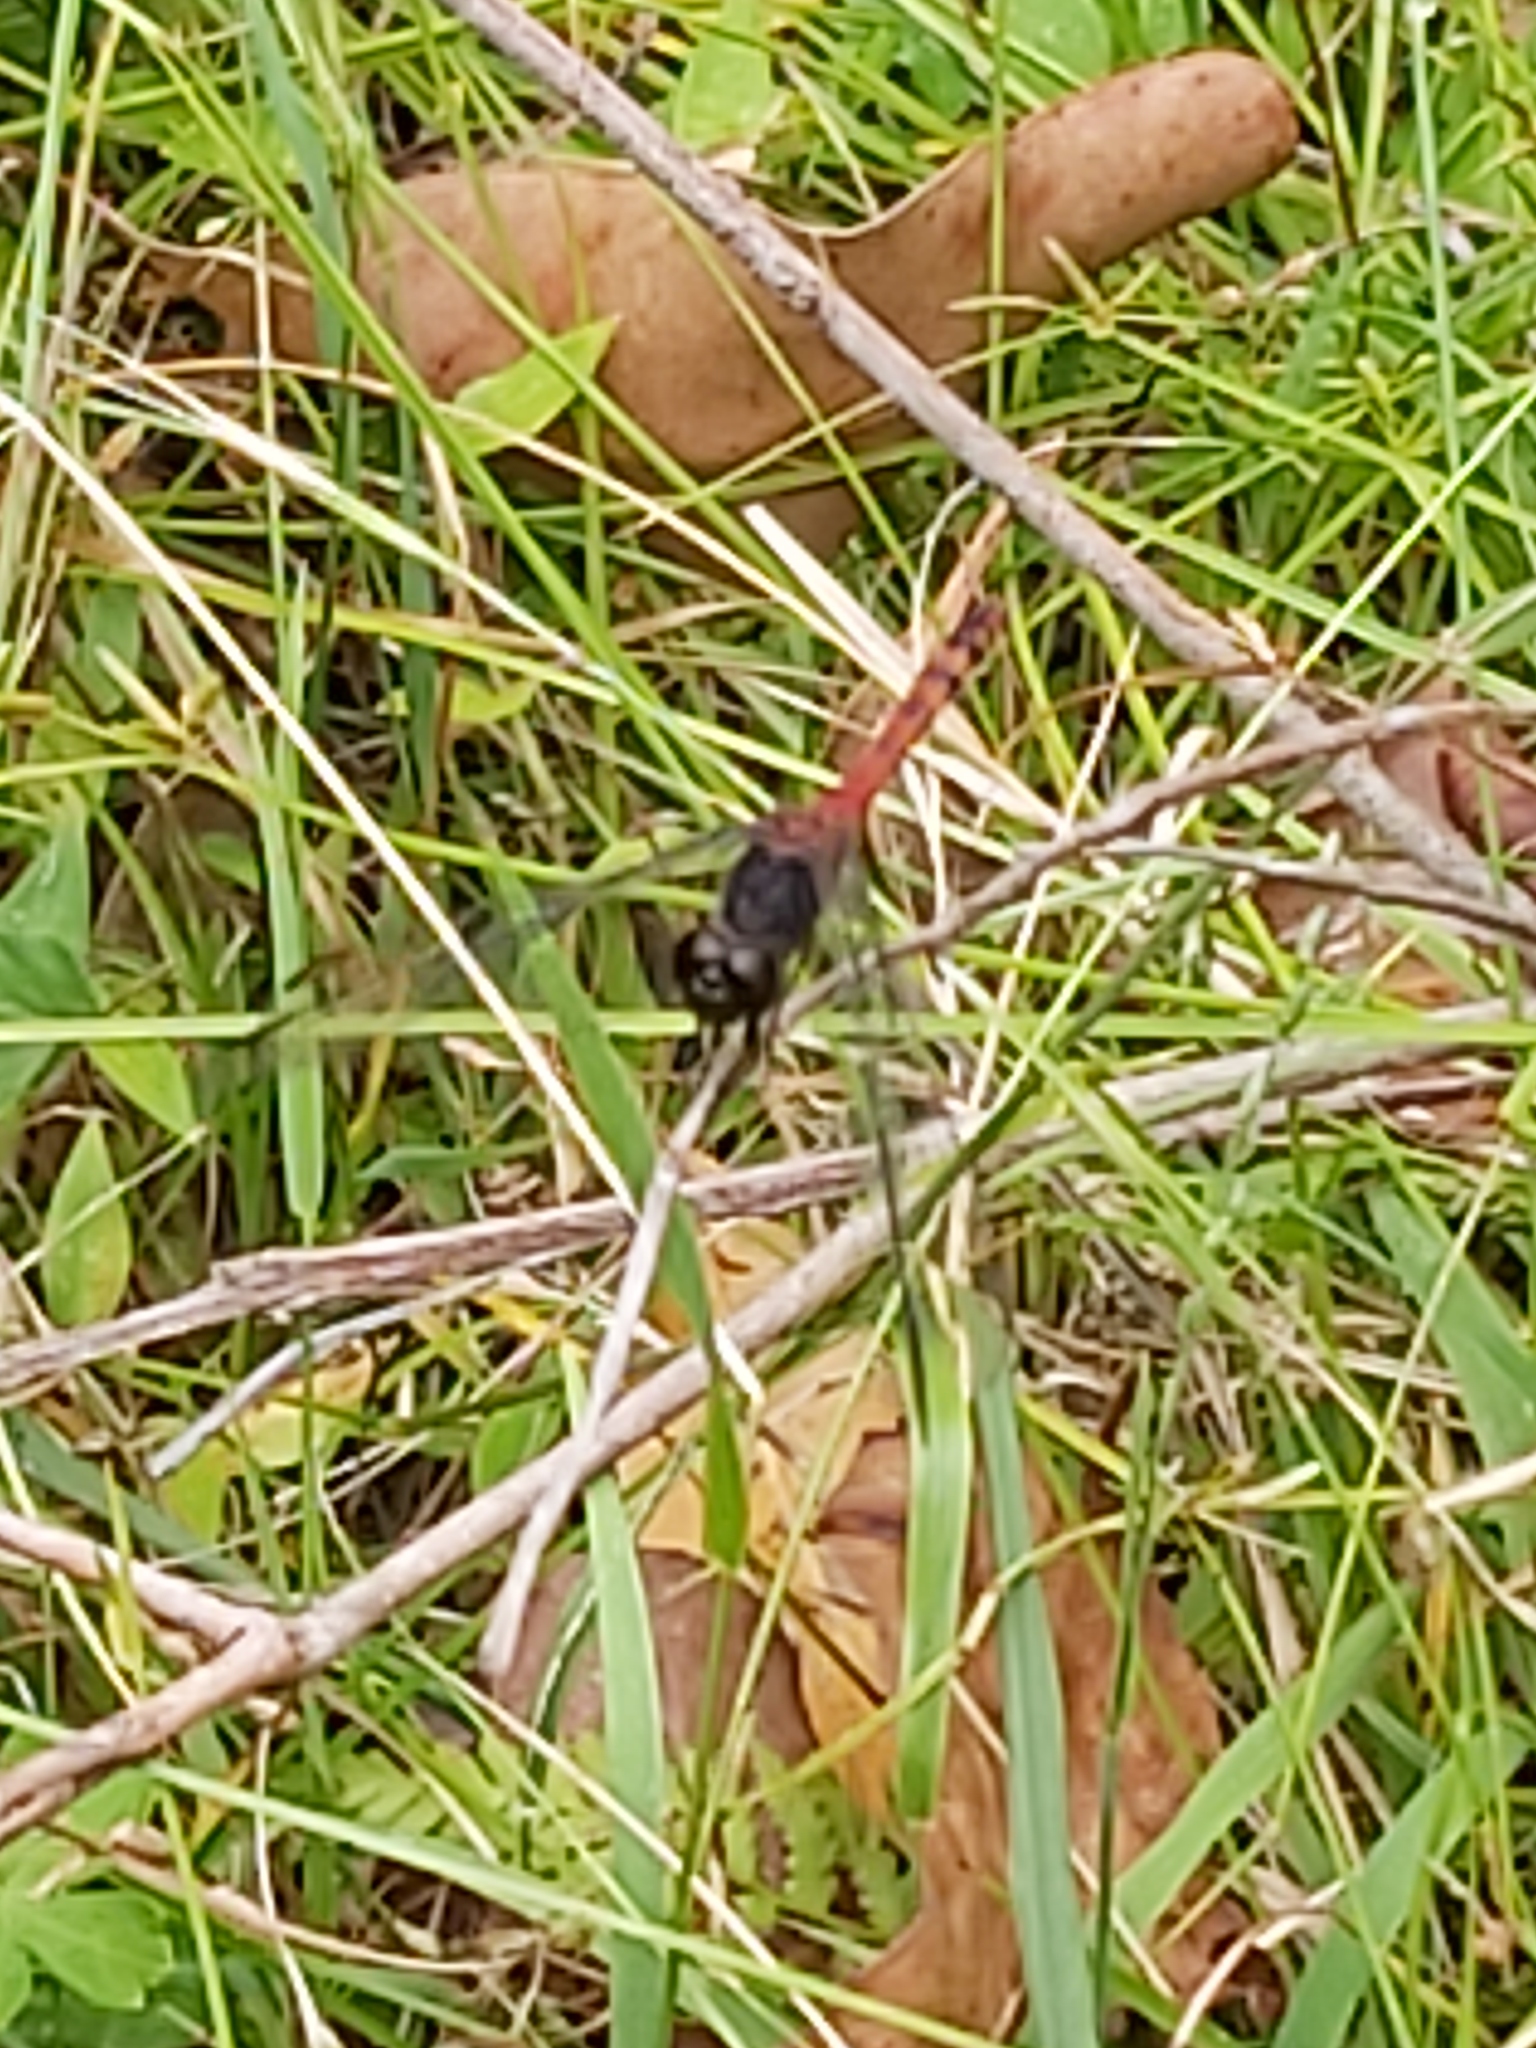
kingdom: Animalia
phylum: Arthropoda
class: Insecta
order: Odonata
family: Libellulidae
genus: Diplacodes
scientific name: Diplacodes melanopsis
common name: Black-faced percher
